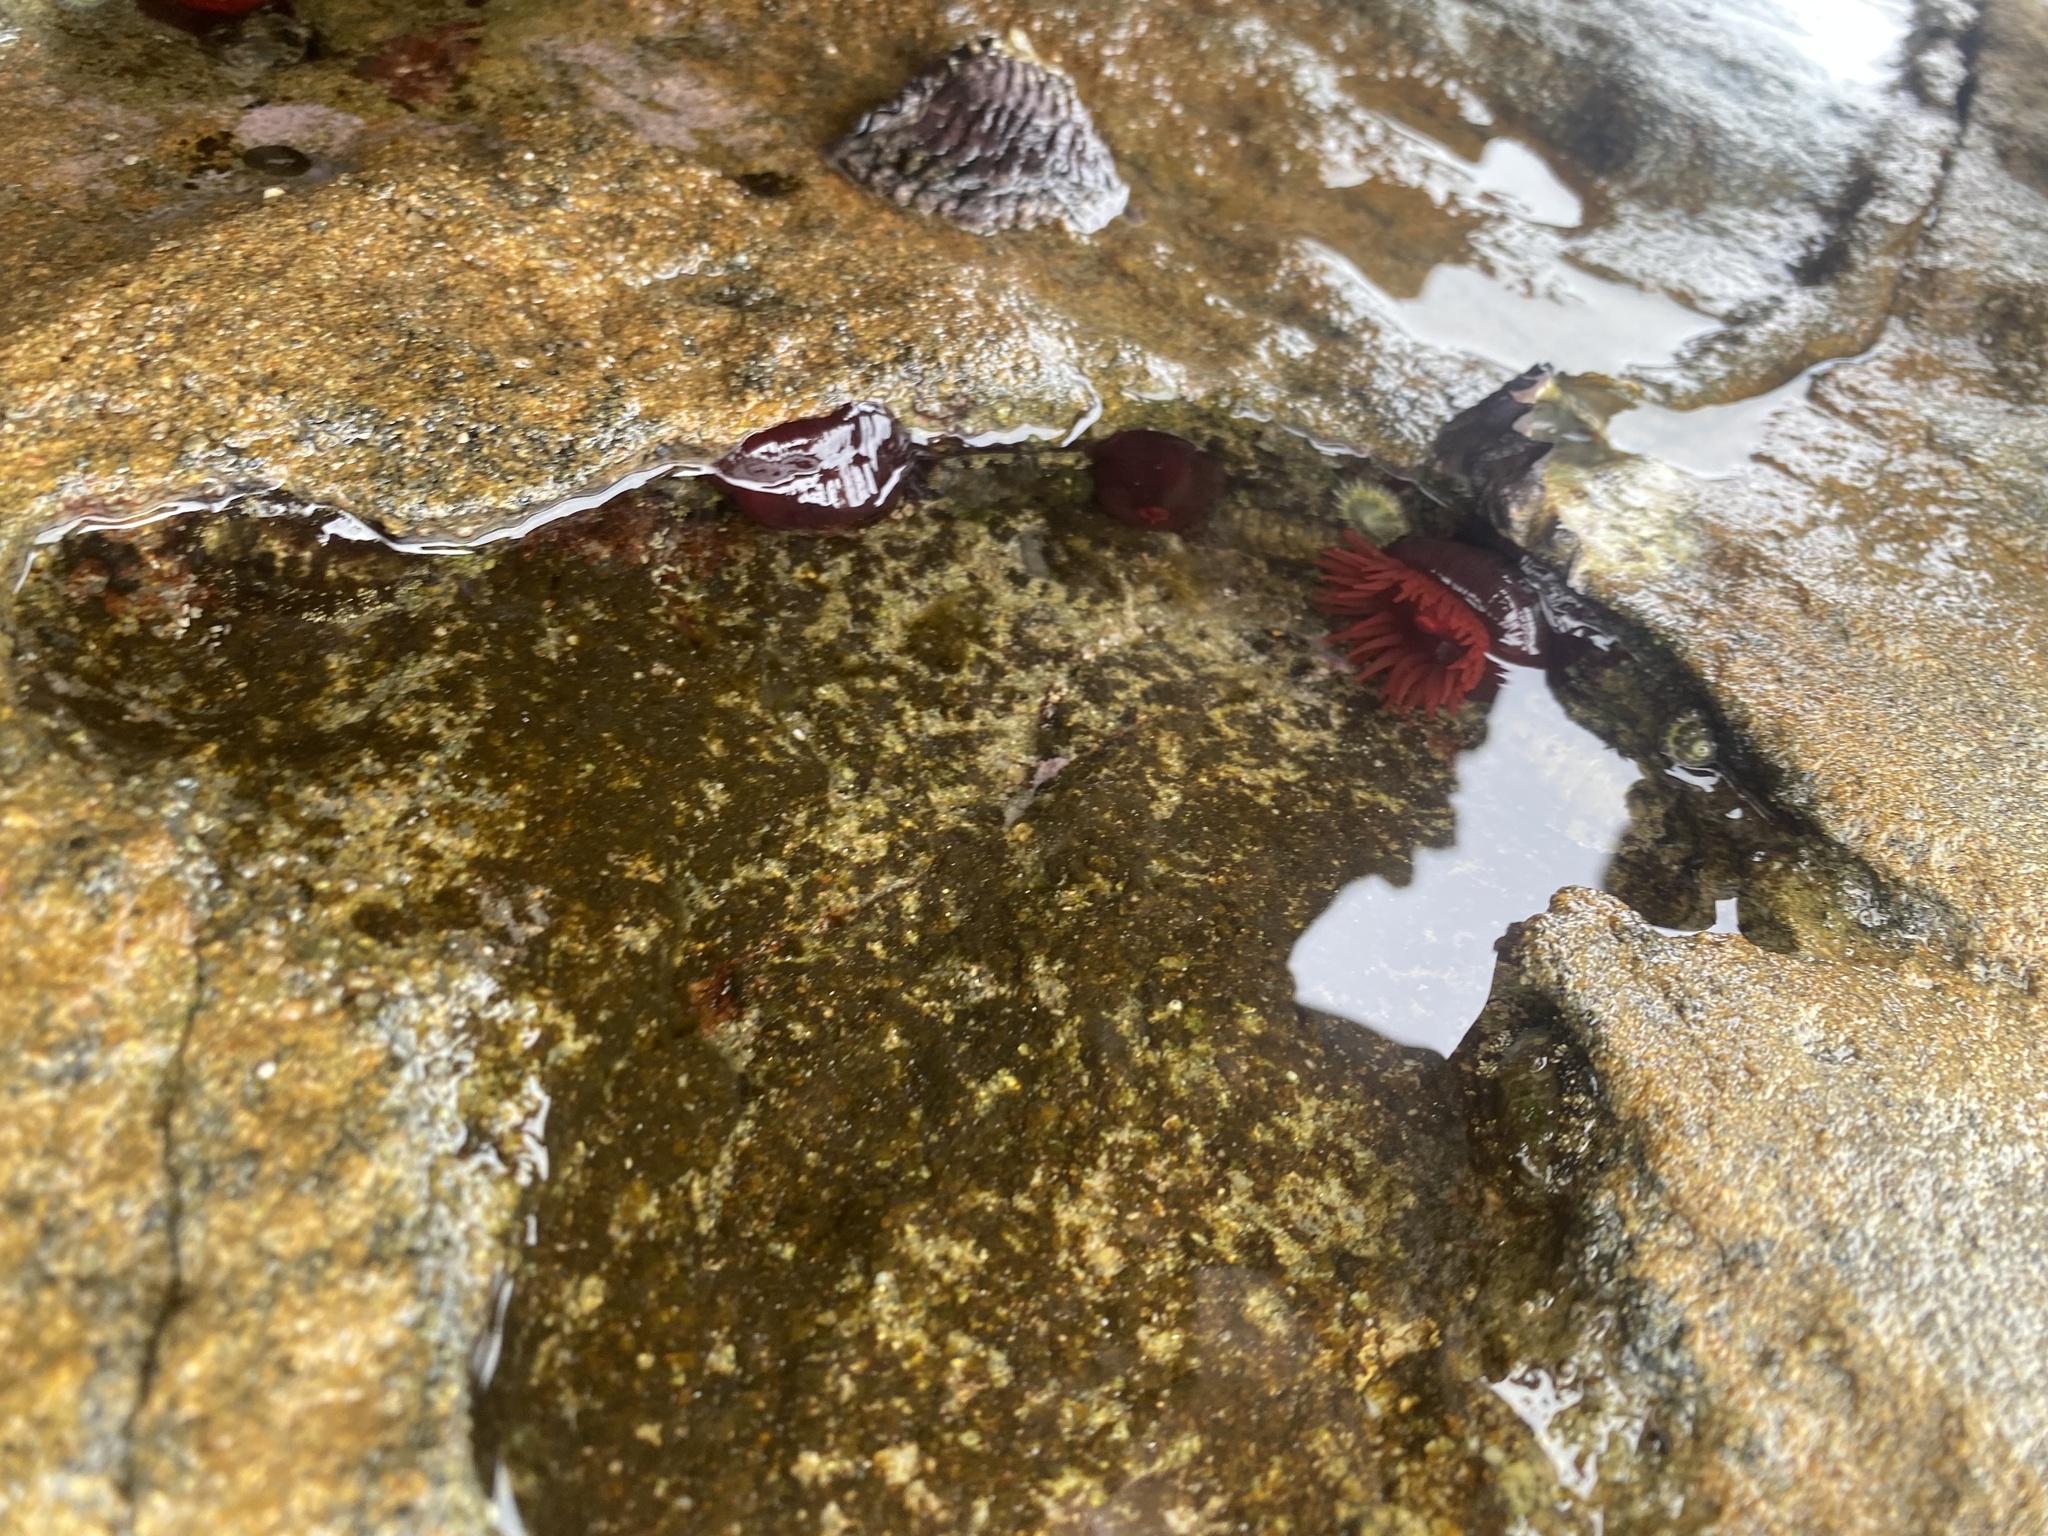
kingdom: Animalia
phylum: Cnidaria
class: Anthozoa
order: Actiniaria
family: Actiniidae
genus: Actinia
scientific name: Actinia tenebrosa
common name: Waratah anemone
